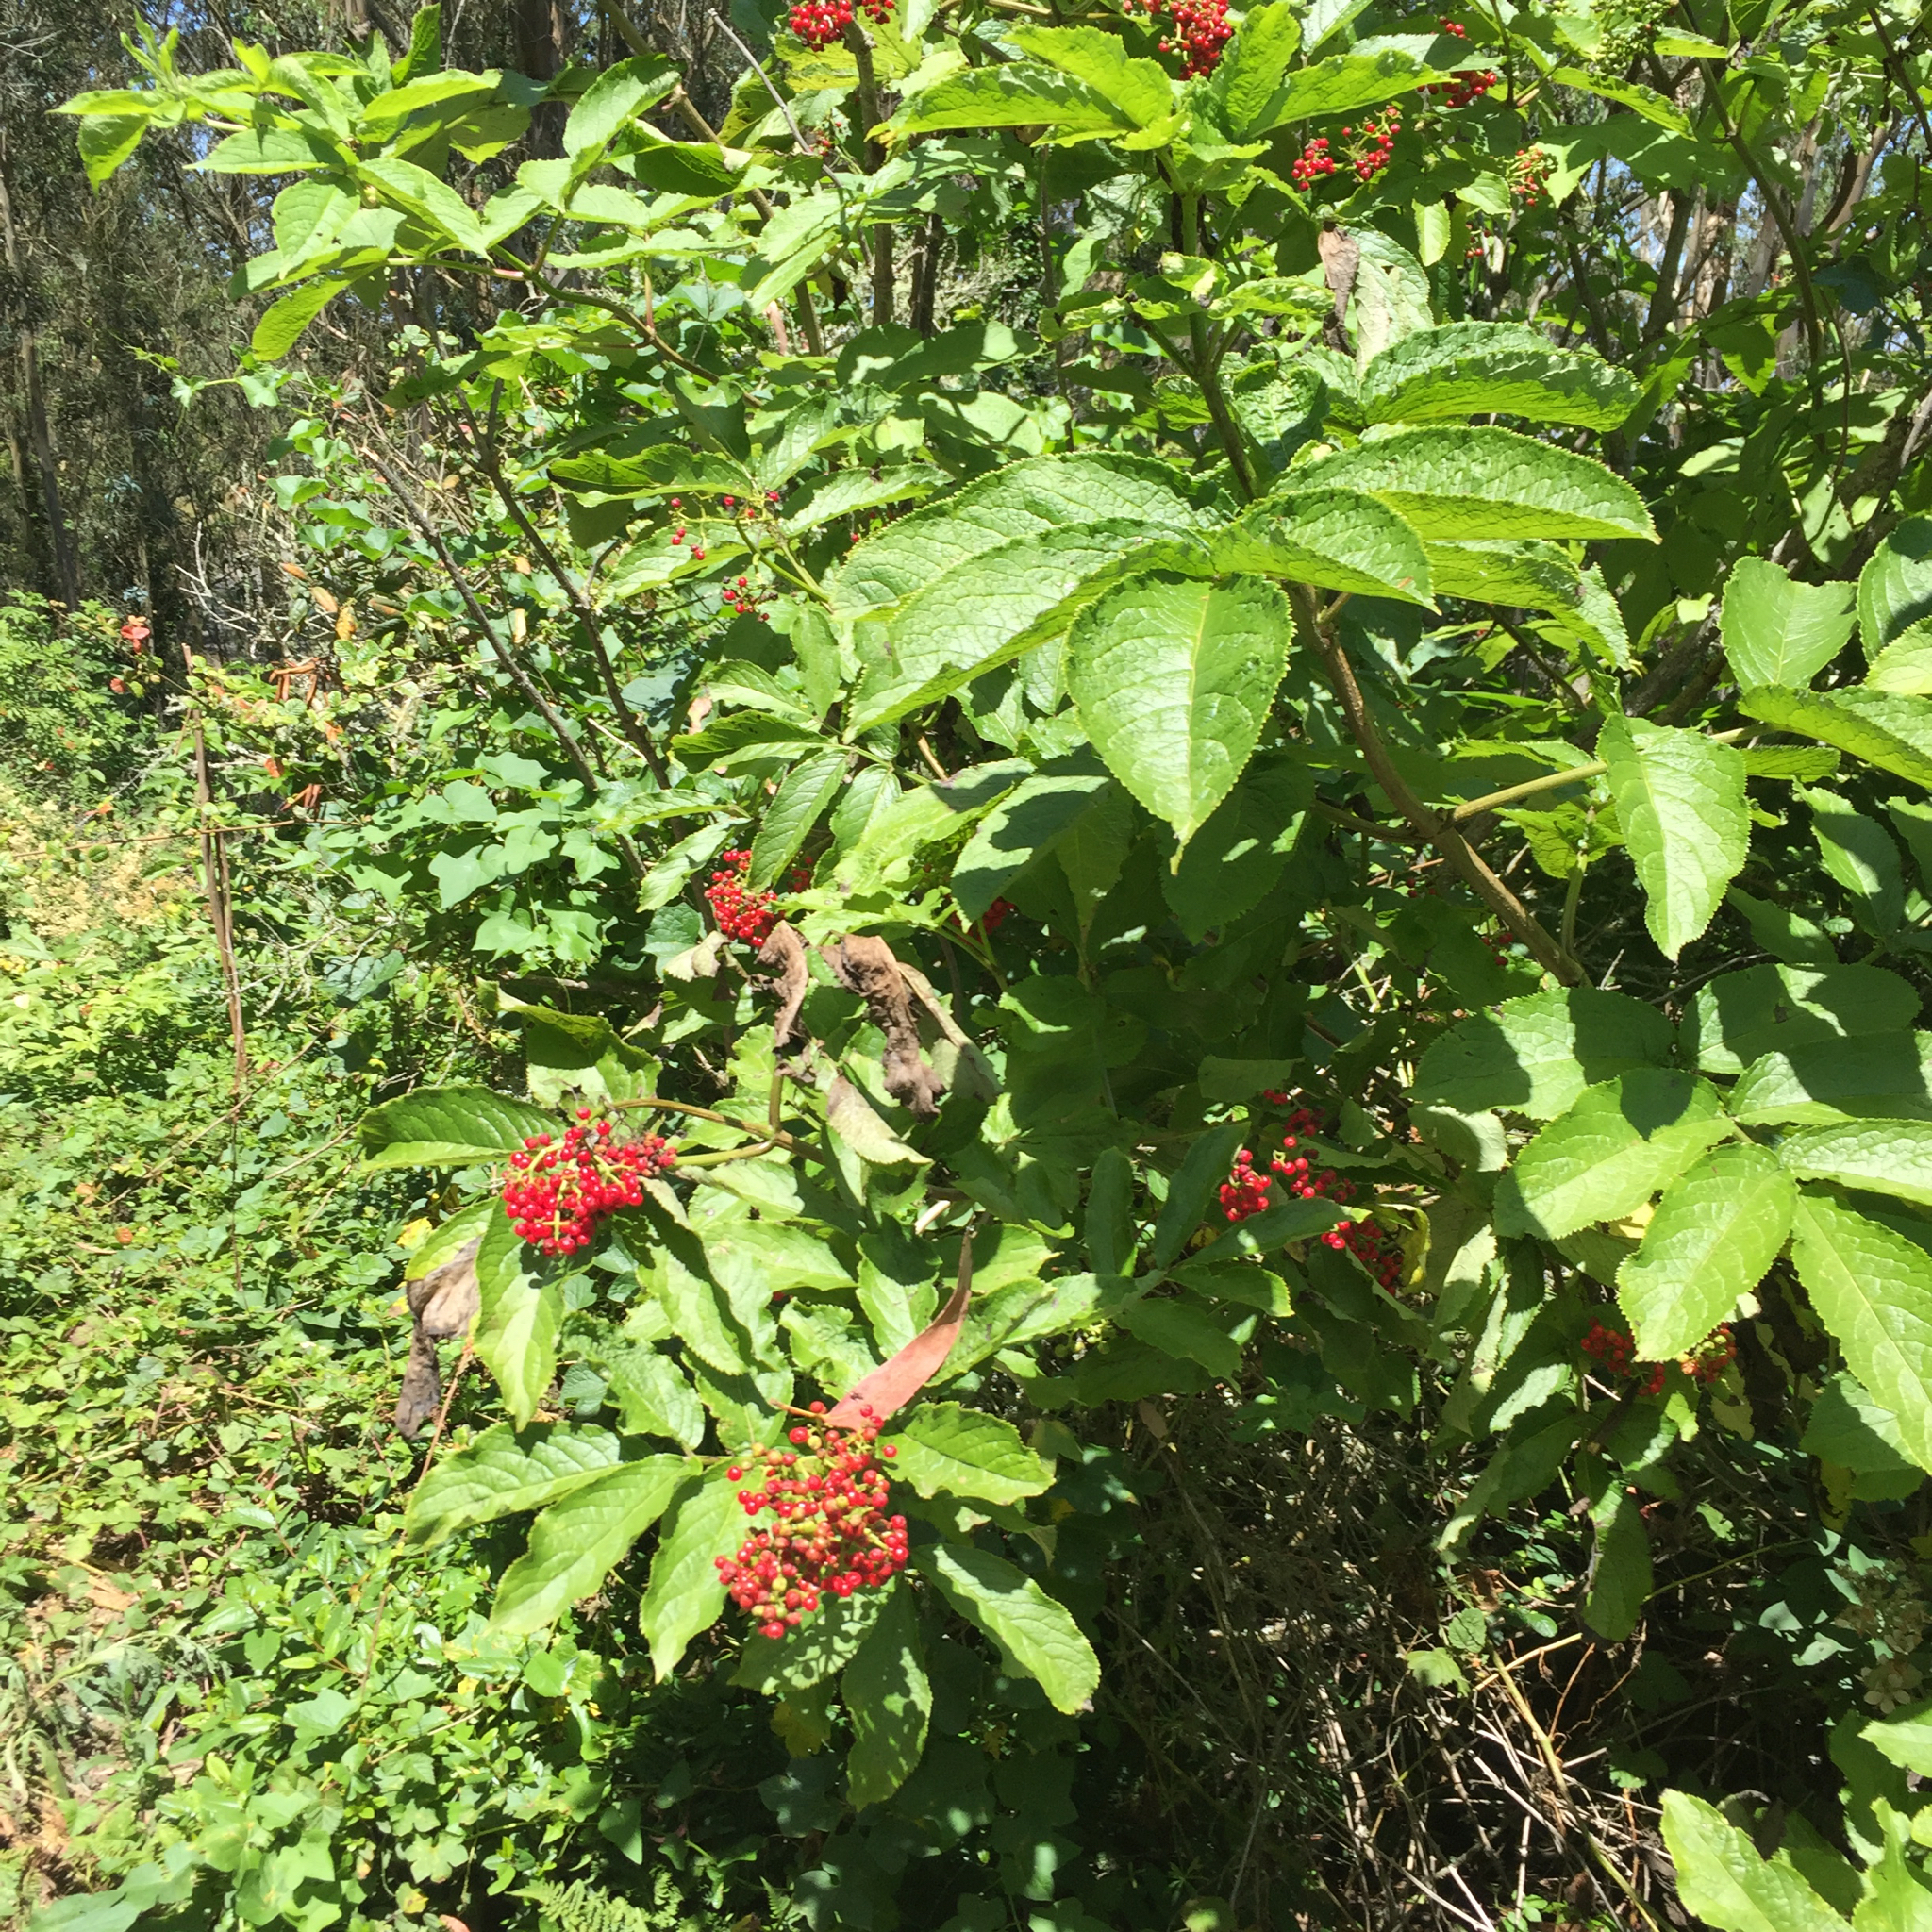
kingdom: Plantae
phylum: Tracheophyta
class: Magnoliopsida
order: Dipsacales
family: Viburnaceae
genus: Sambucus
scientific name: Sambucus racemosa
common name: Red-berried elder
